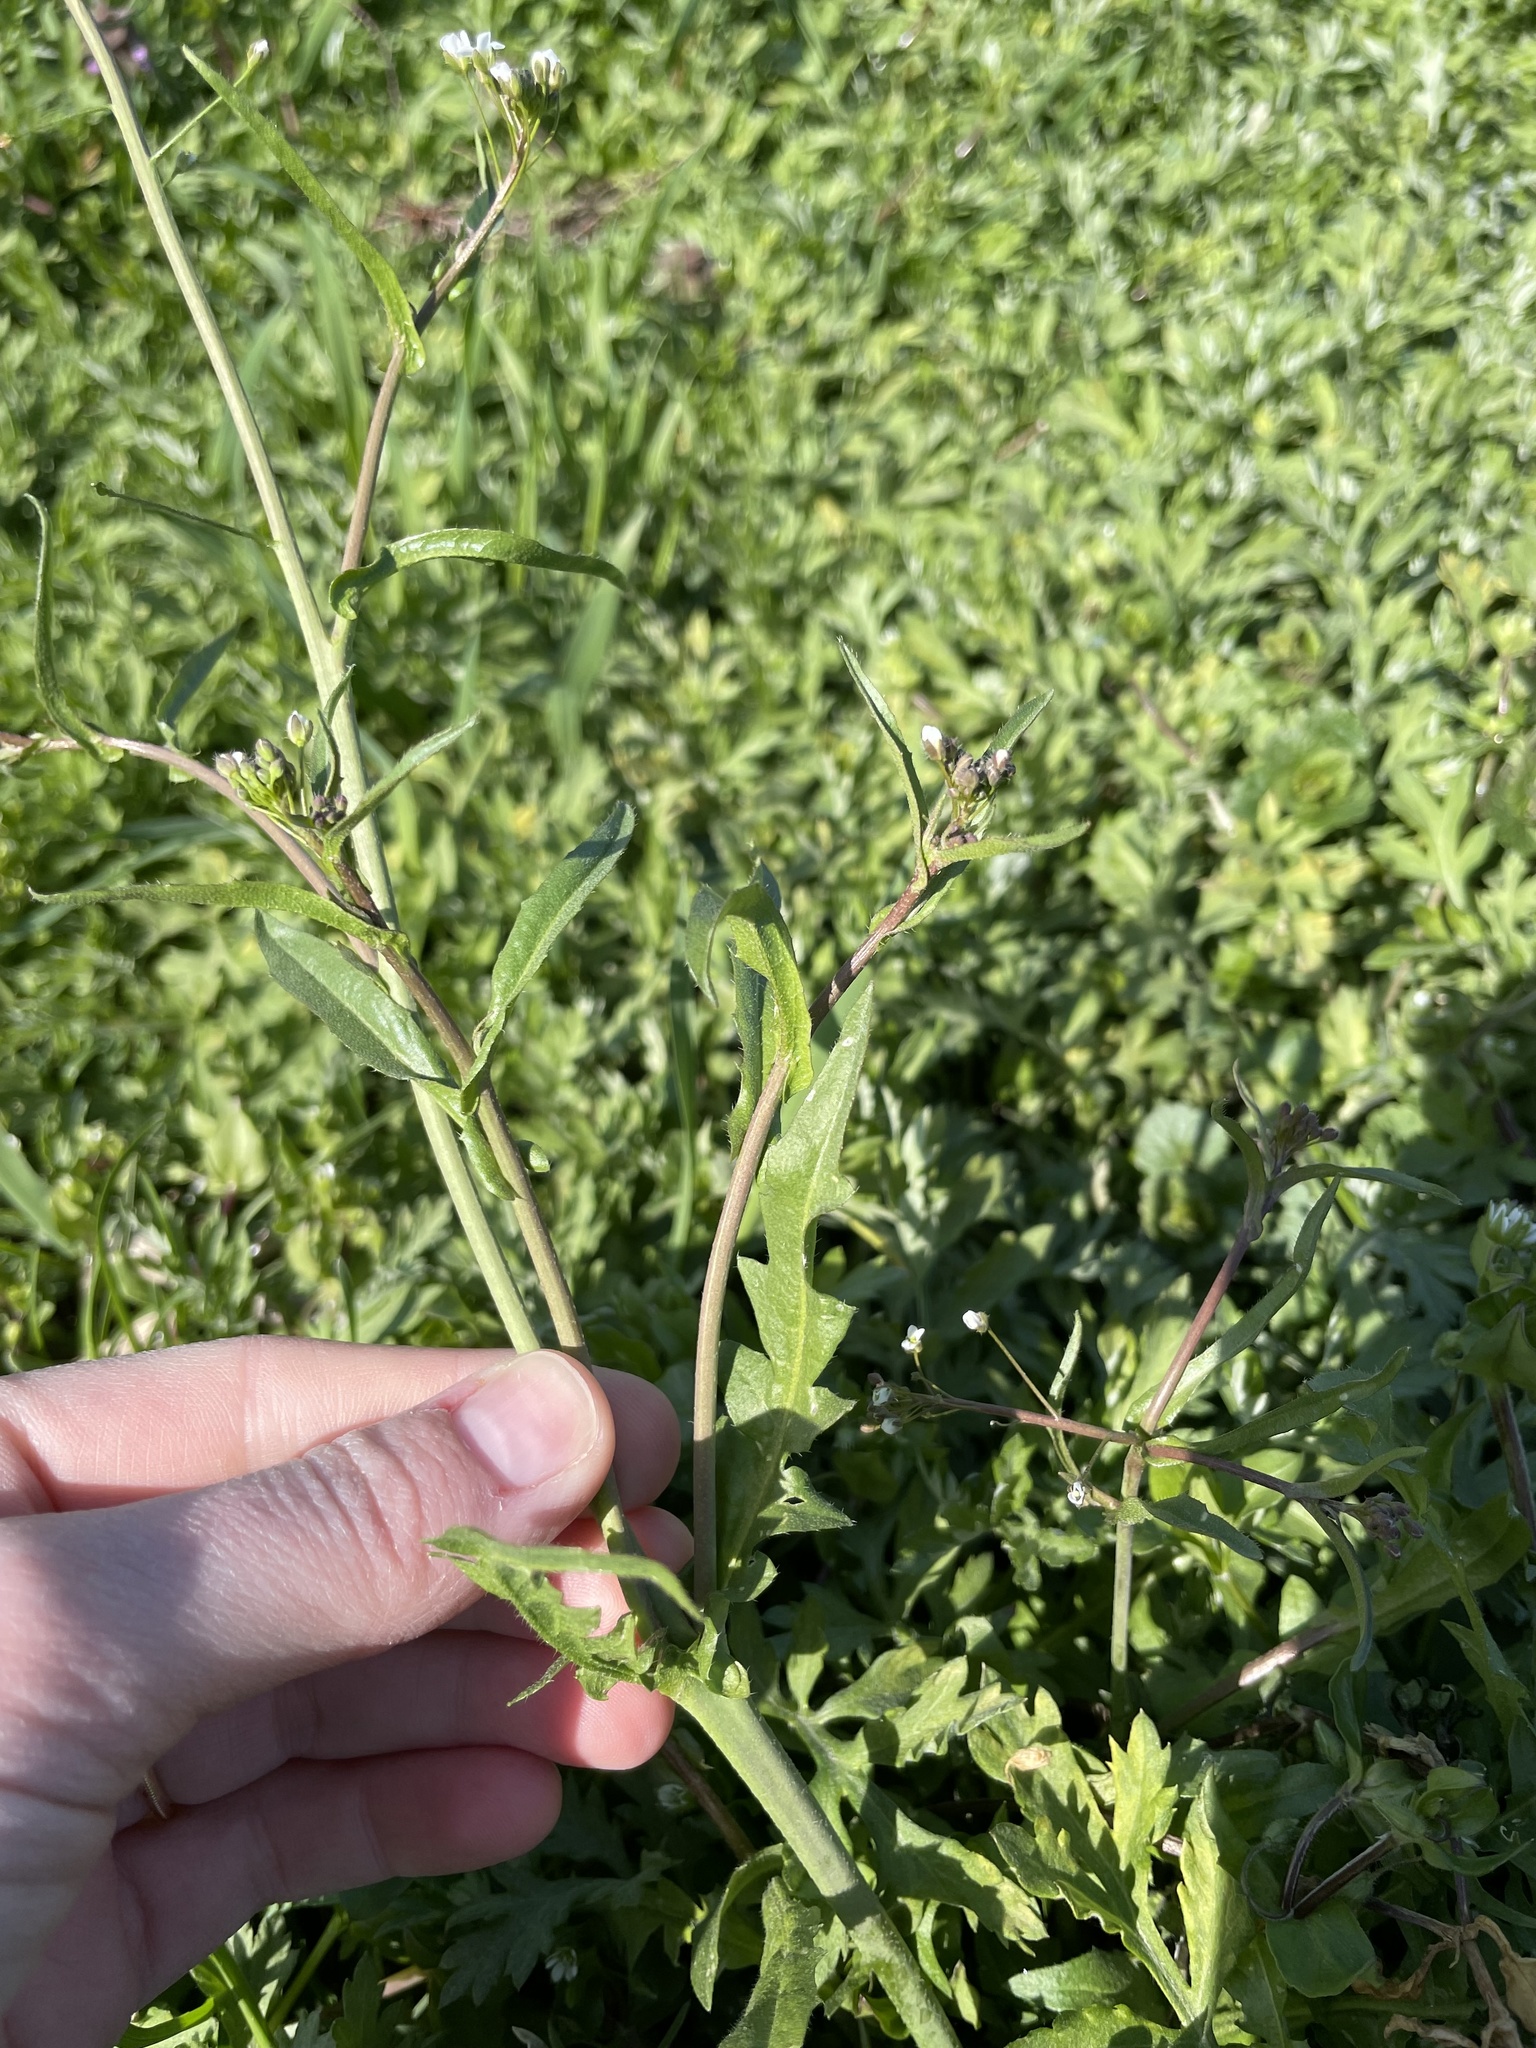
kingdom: Plantae
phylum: Tracheophyta
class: Magnoliopsida
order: Brassicales
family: Brassicaceae
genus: Capsella
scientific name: Capsella bursa-pastoris
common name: Shepherd's purse
